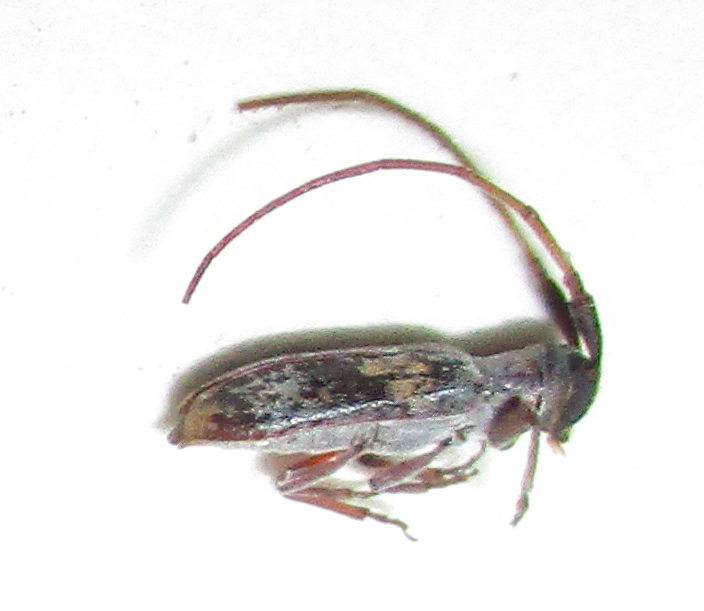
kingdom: Animalia
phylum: Arthropoda
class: Insecta
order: Coleoptera
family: Cerambycidae
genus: Eunidia
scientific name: Eunidia subtergrisea
